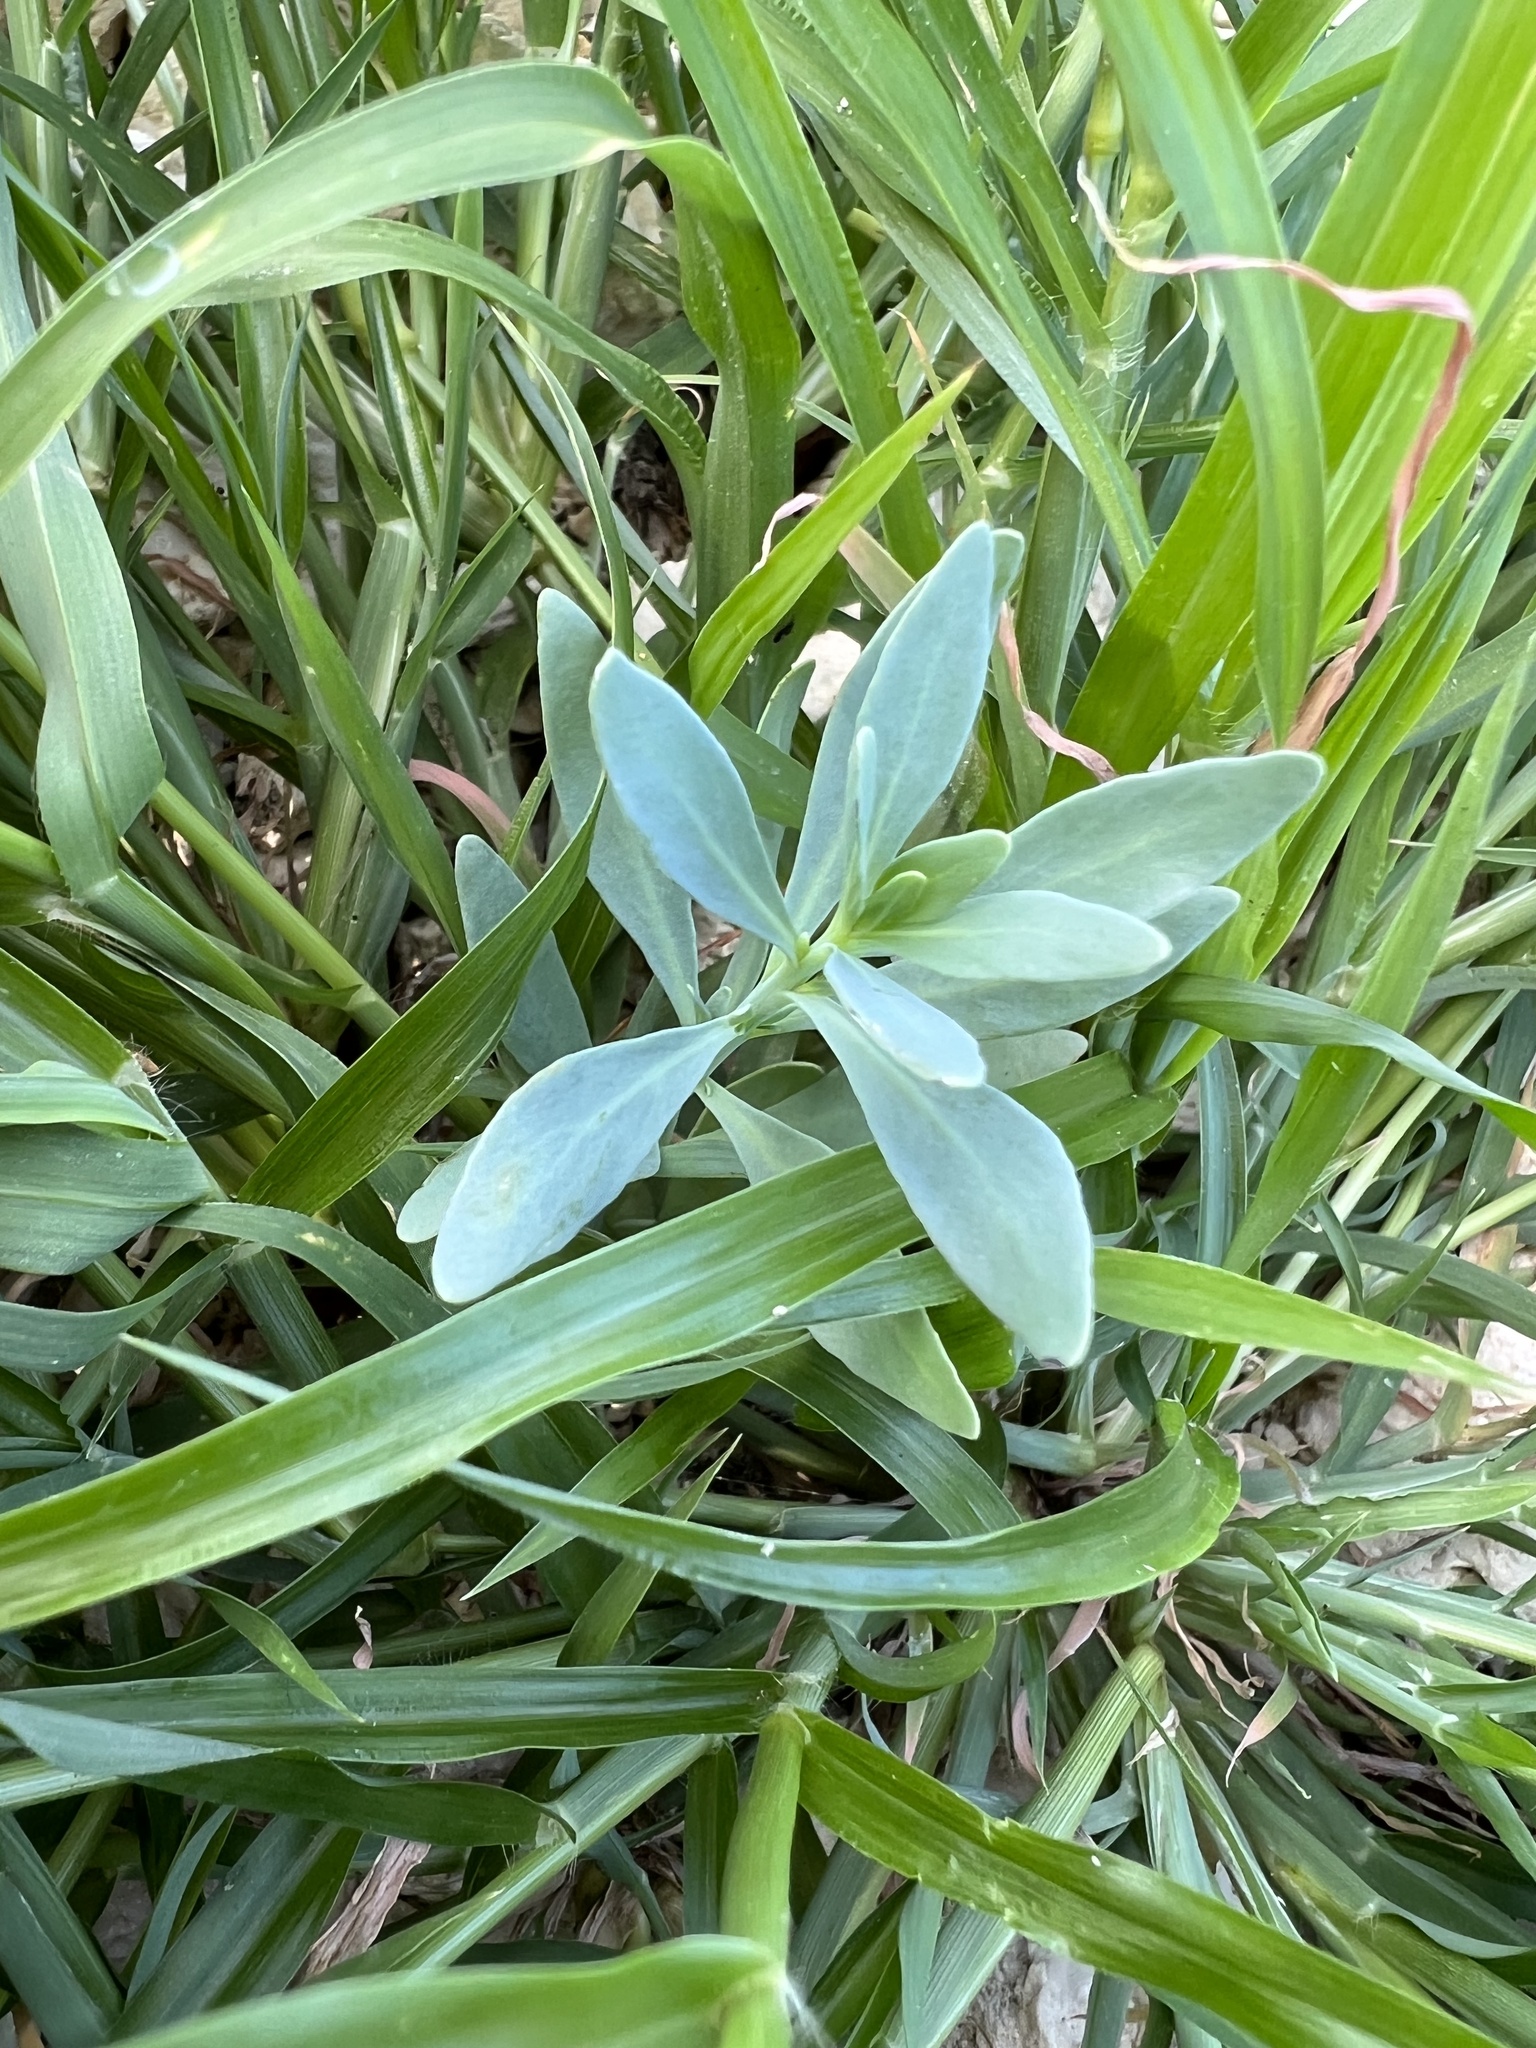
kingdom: Plantae
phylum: Tracheophyta
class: Magnoliopsida
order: Boraginales
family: Heliotropiaceae
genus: Heliotropium
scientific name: Heliotropium curassavicum
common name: Seaside heliotrope
